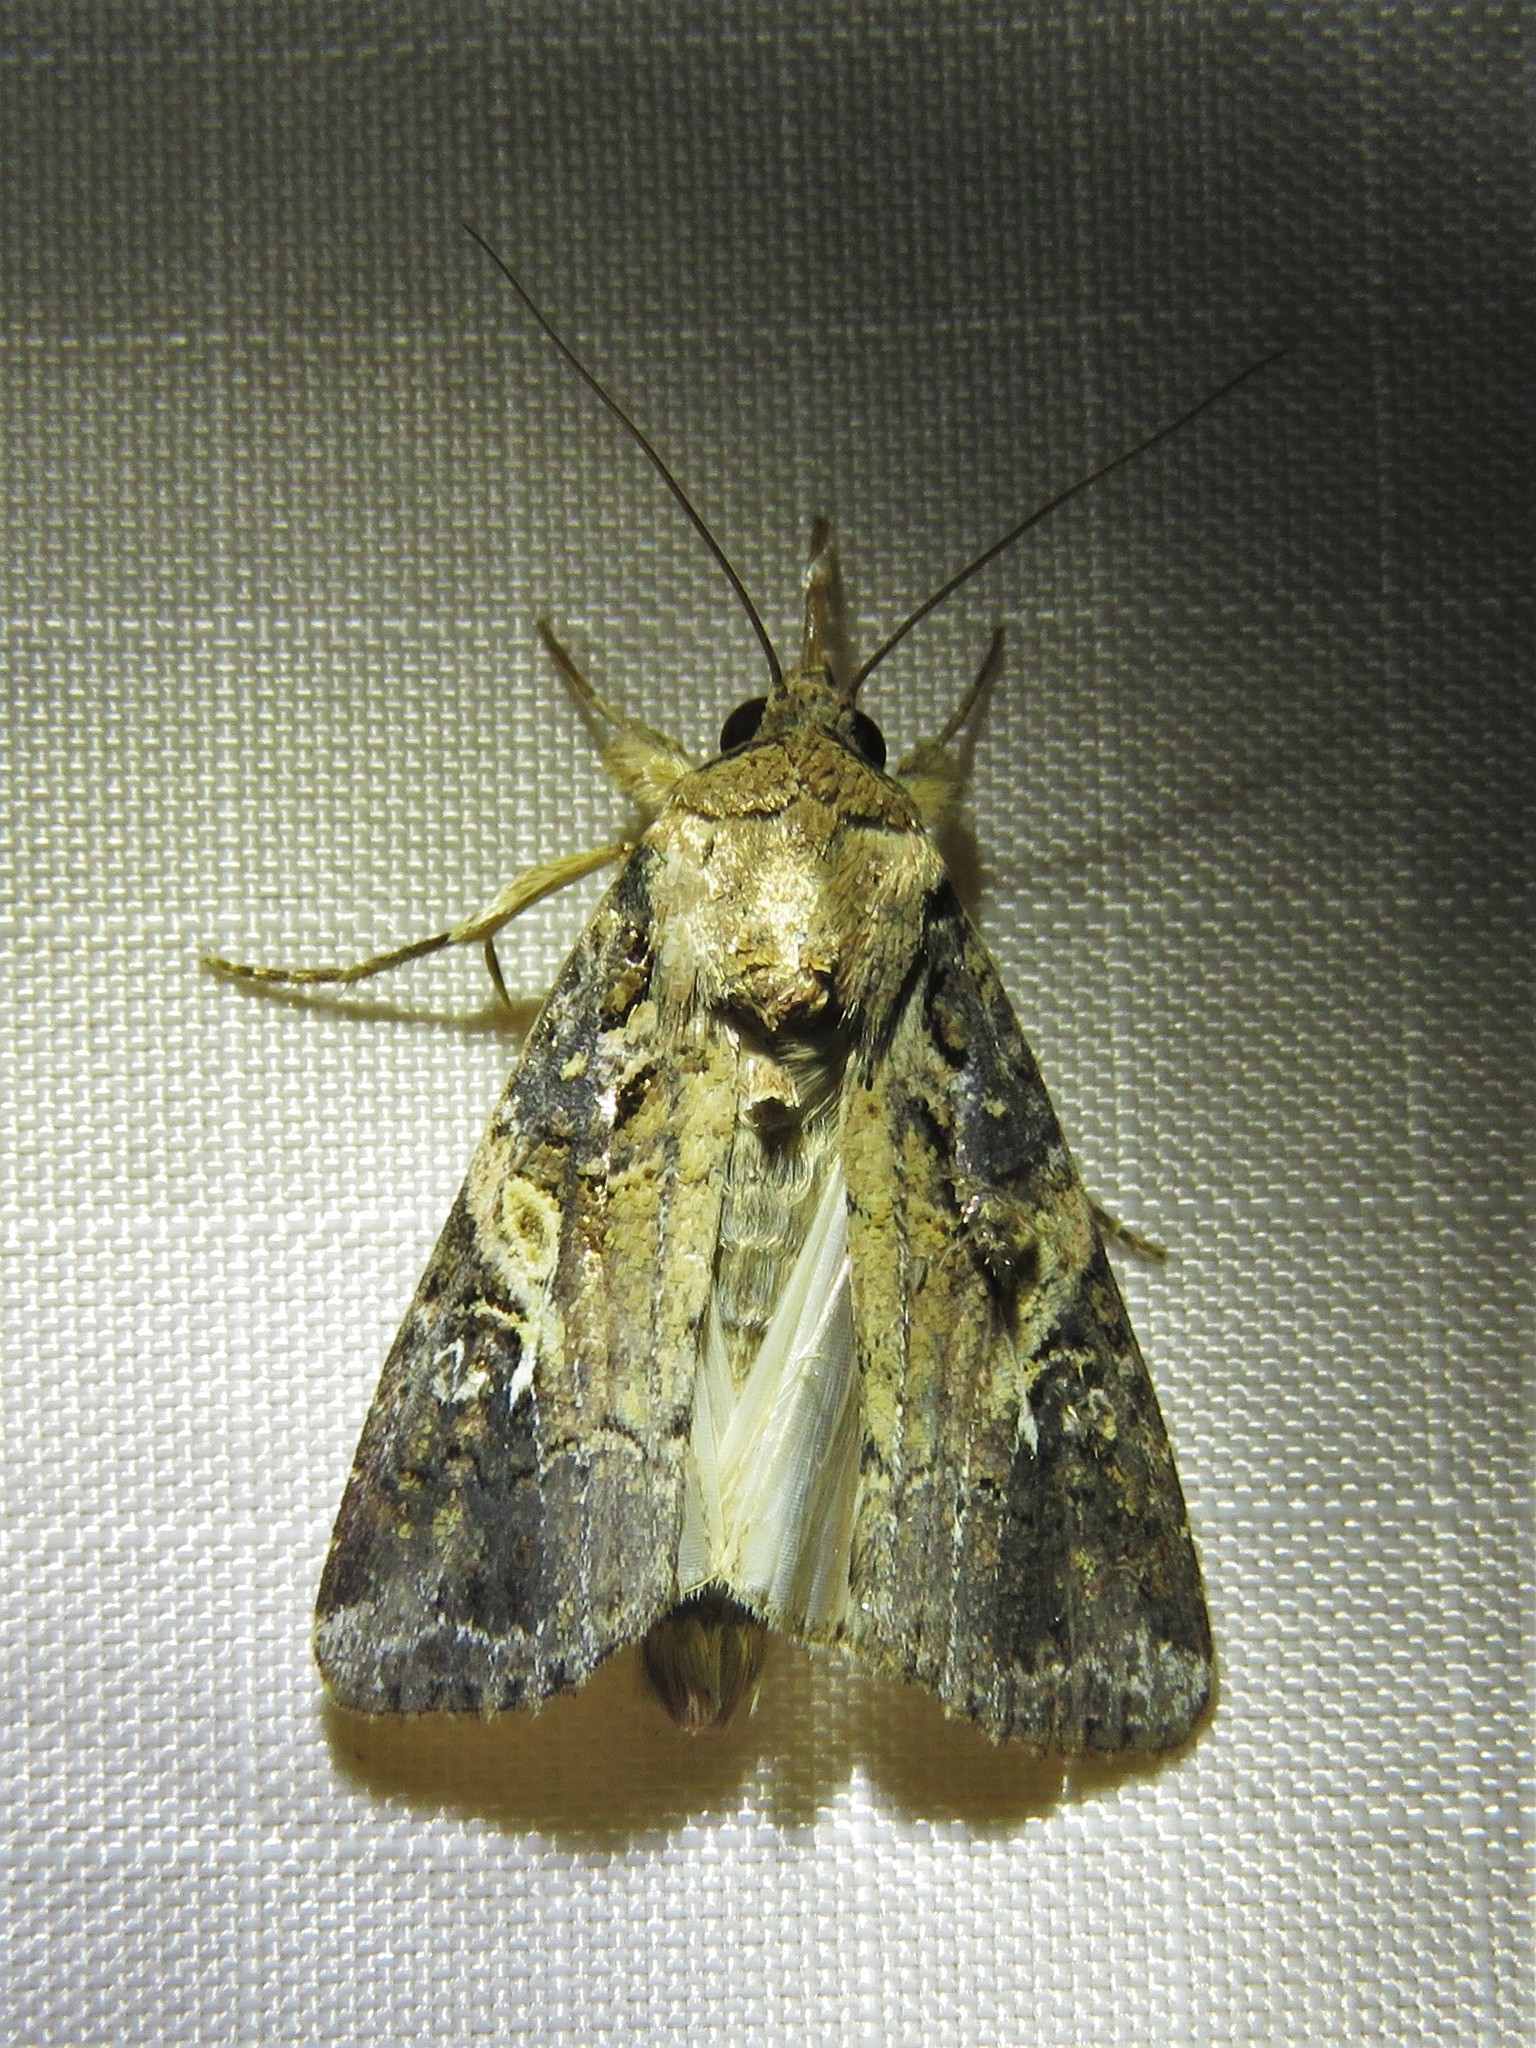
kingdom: Animalia
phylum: Arthropoda
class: Insecta
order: Lepidoptera
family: Noctuidae
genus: Spodoptera
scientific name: Spodoptera frugiperda
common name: Fall armyworm
